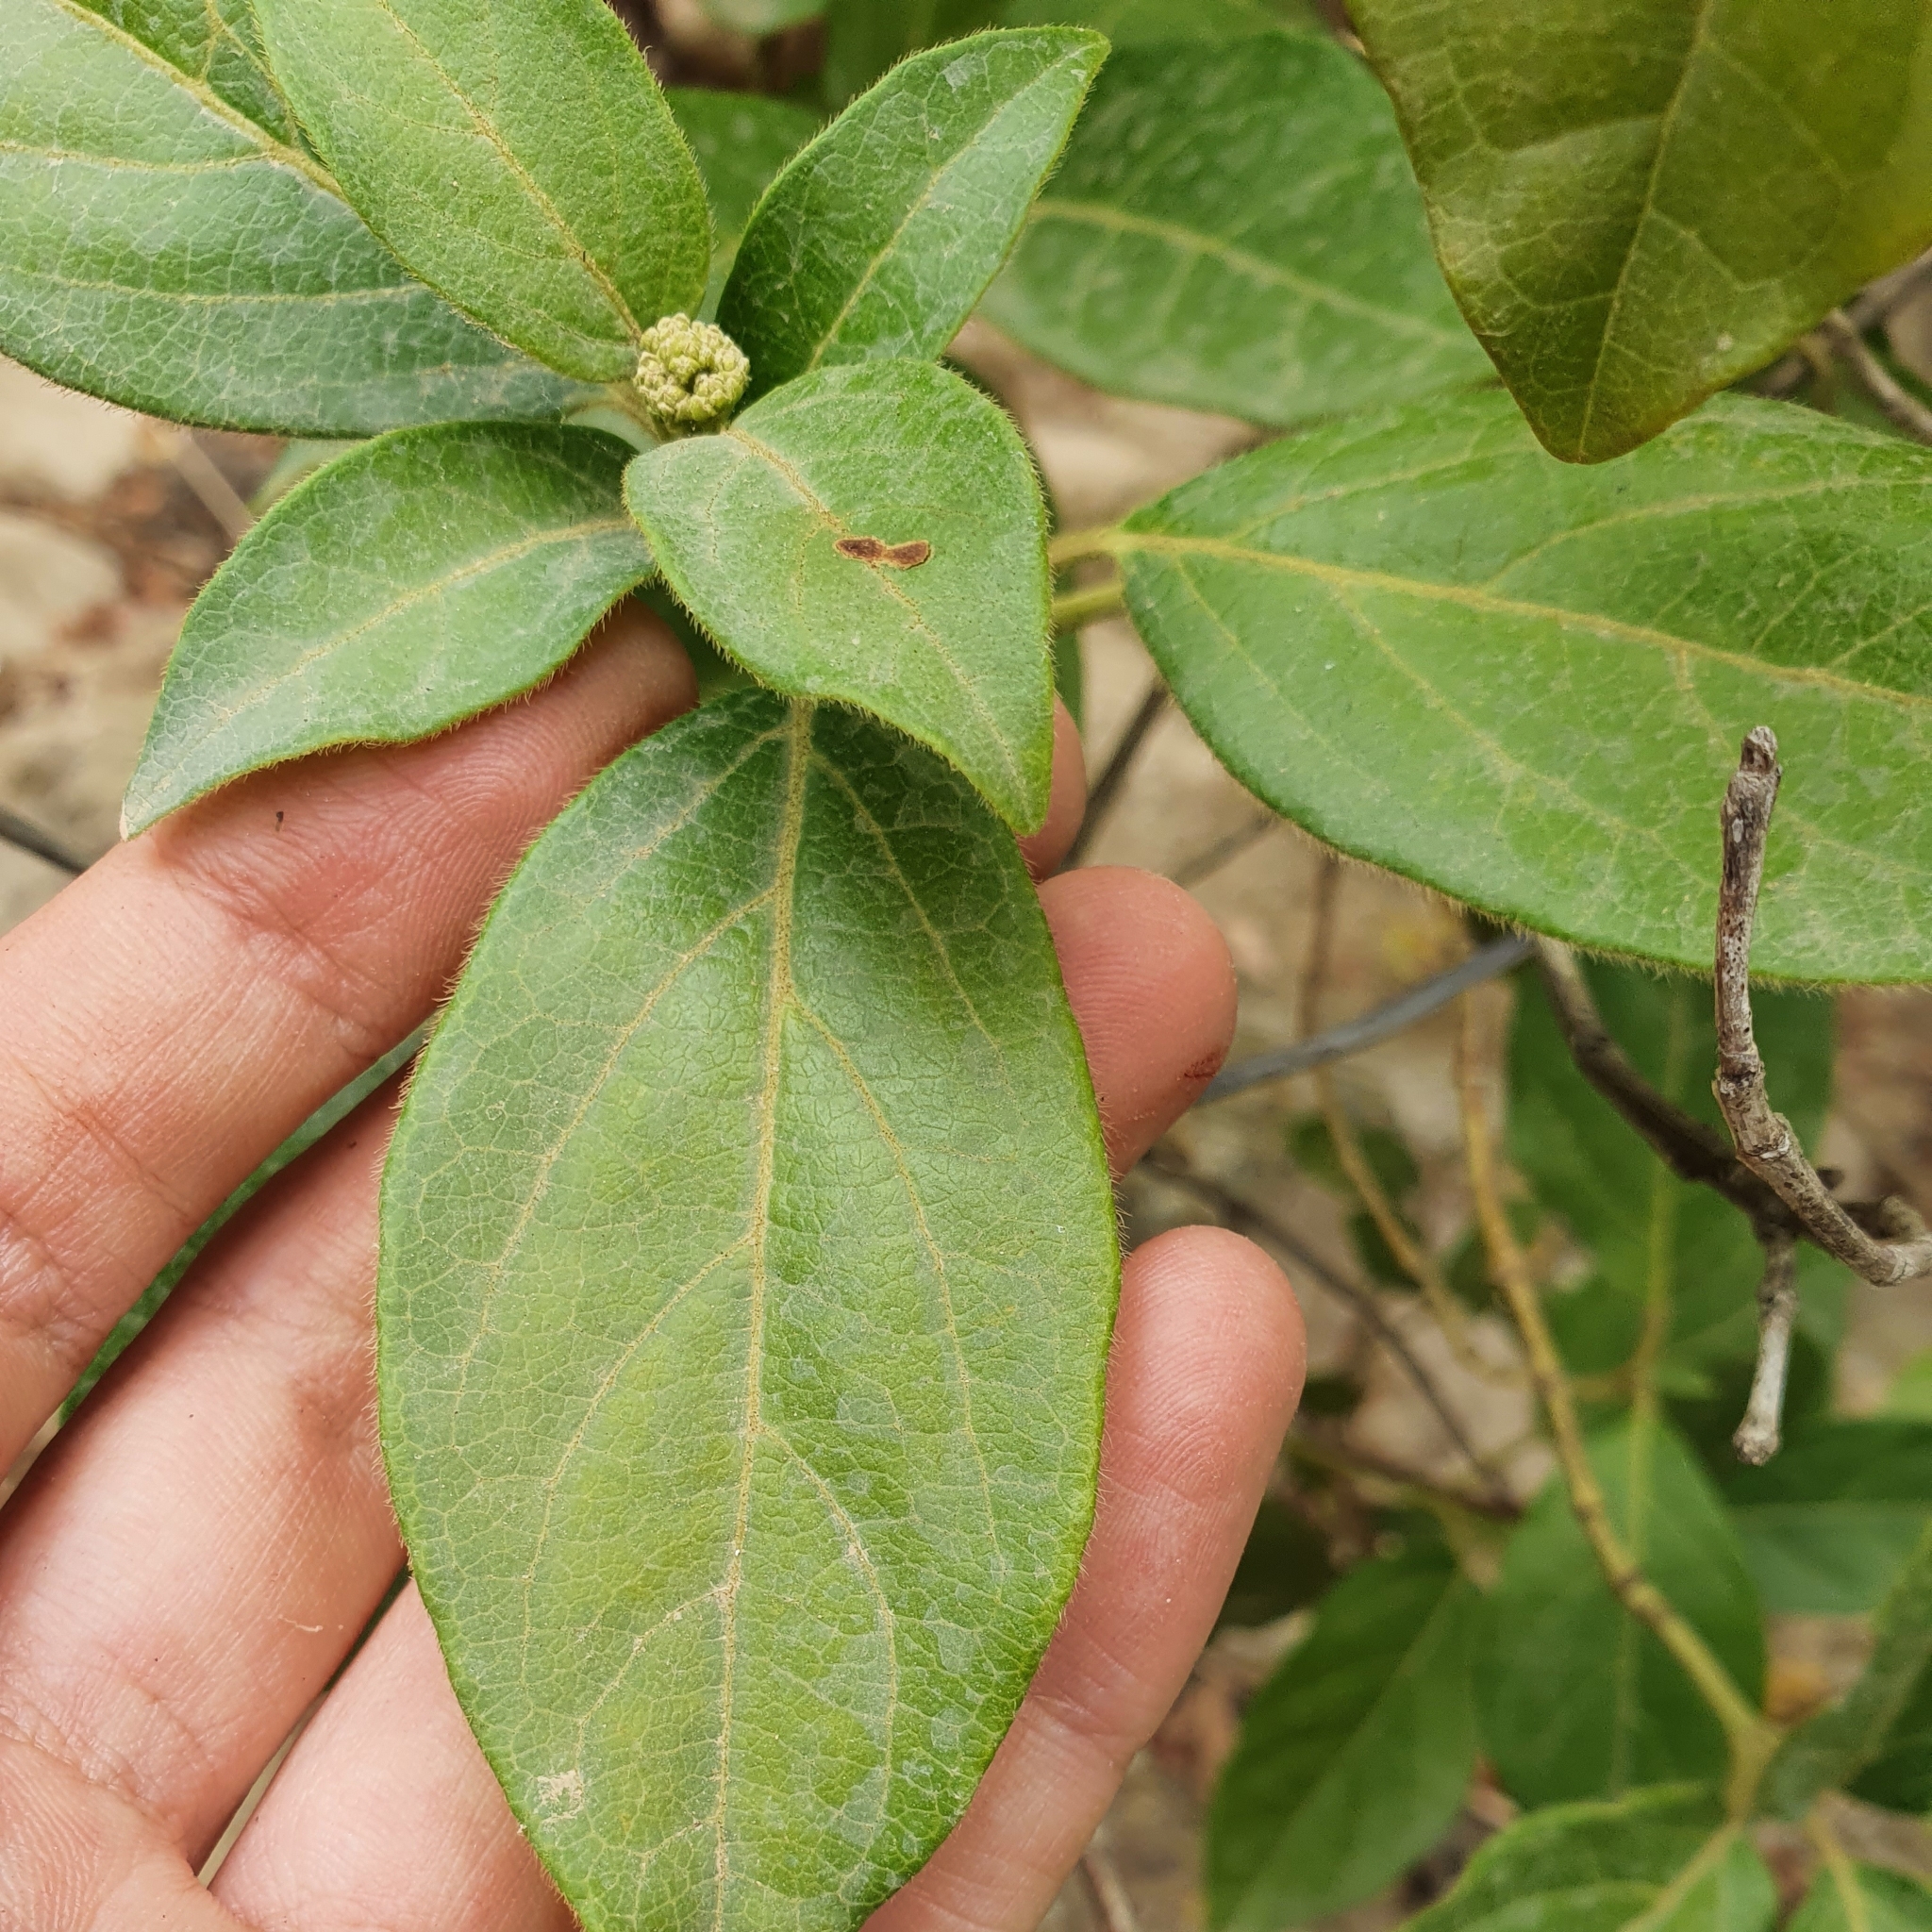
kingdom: Plantae
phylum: Tracheophyta
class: Magnoliopsida
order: Dipsacales
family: Viburnaceae
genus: Viburnum
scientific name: Viburnum tinus
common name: Laurustinus
